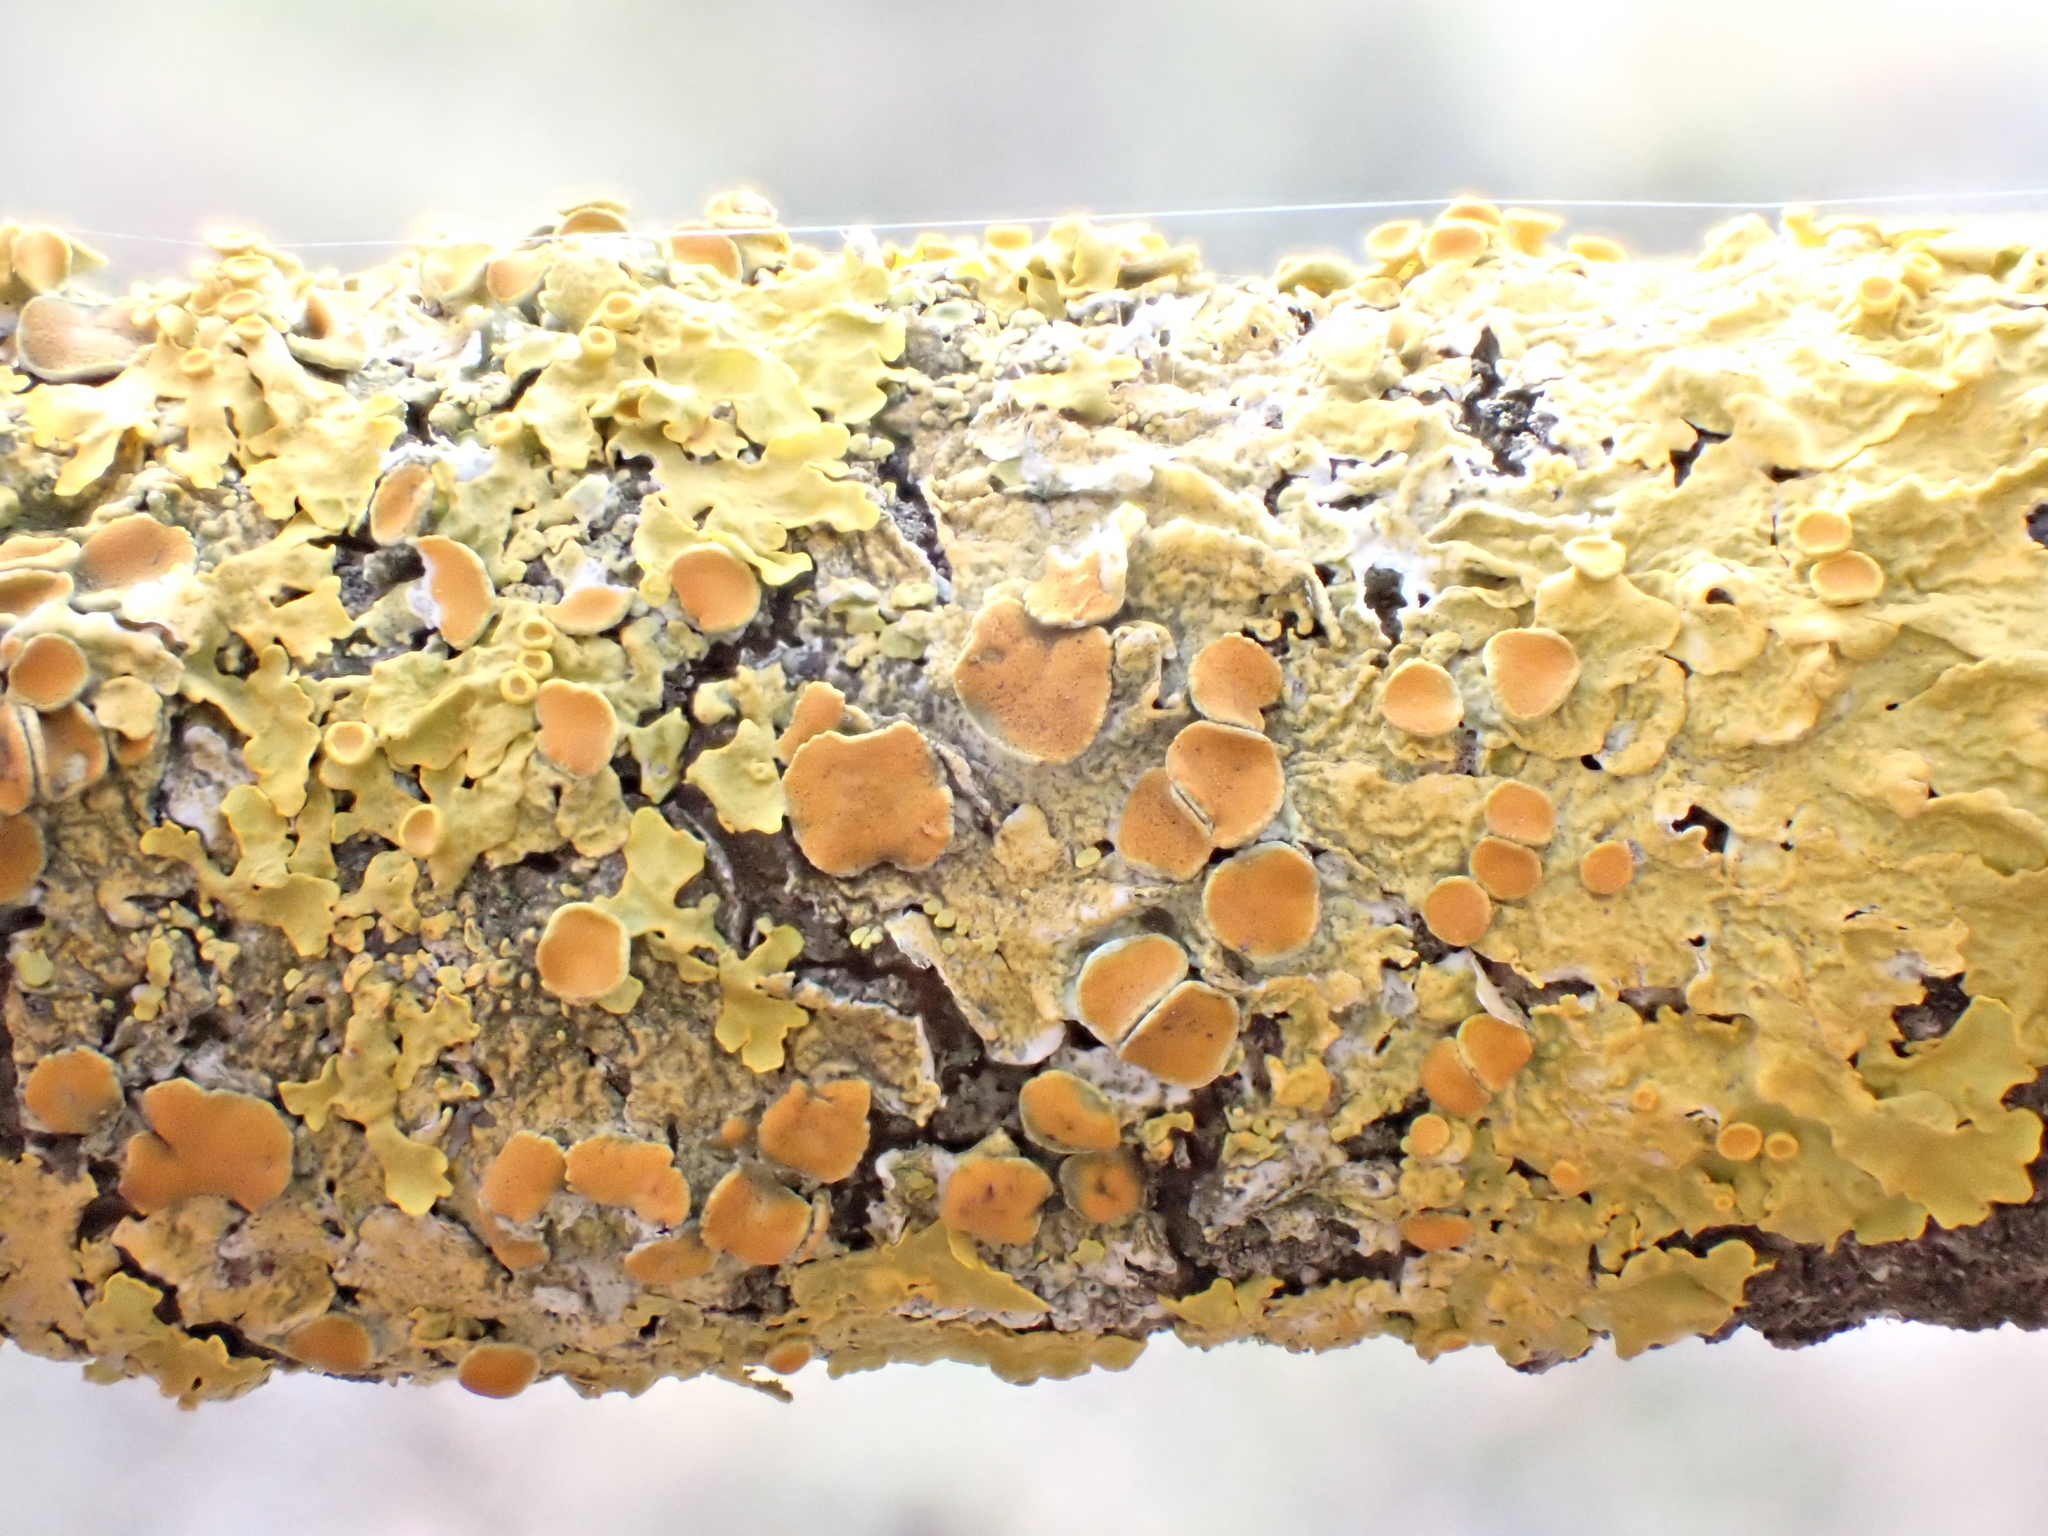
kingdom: Fungi
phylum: Ascomycota
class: Lecanoromycetes
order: Teloschistales
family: Teloschistaceae
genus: Xanthoria
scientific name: Xanthoria parietina
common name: Common orange lichen
